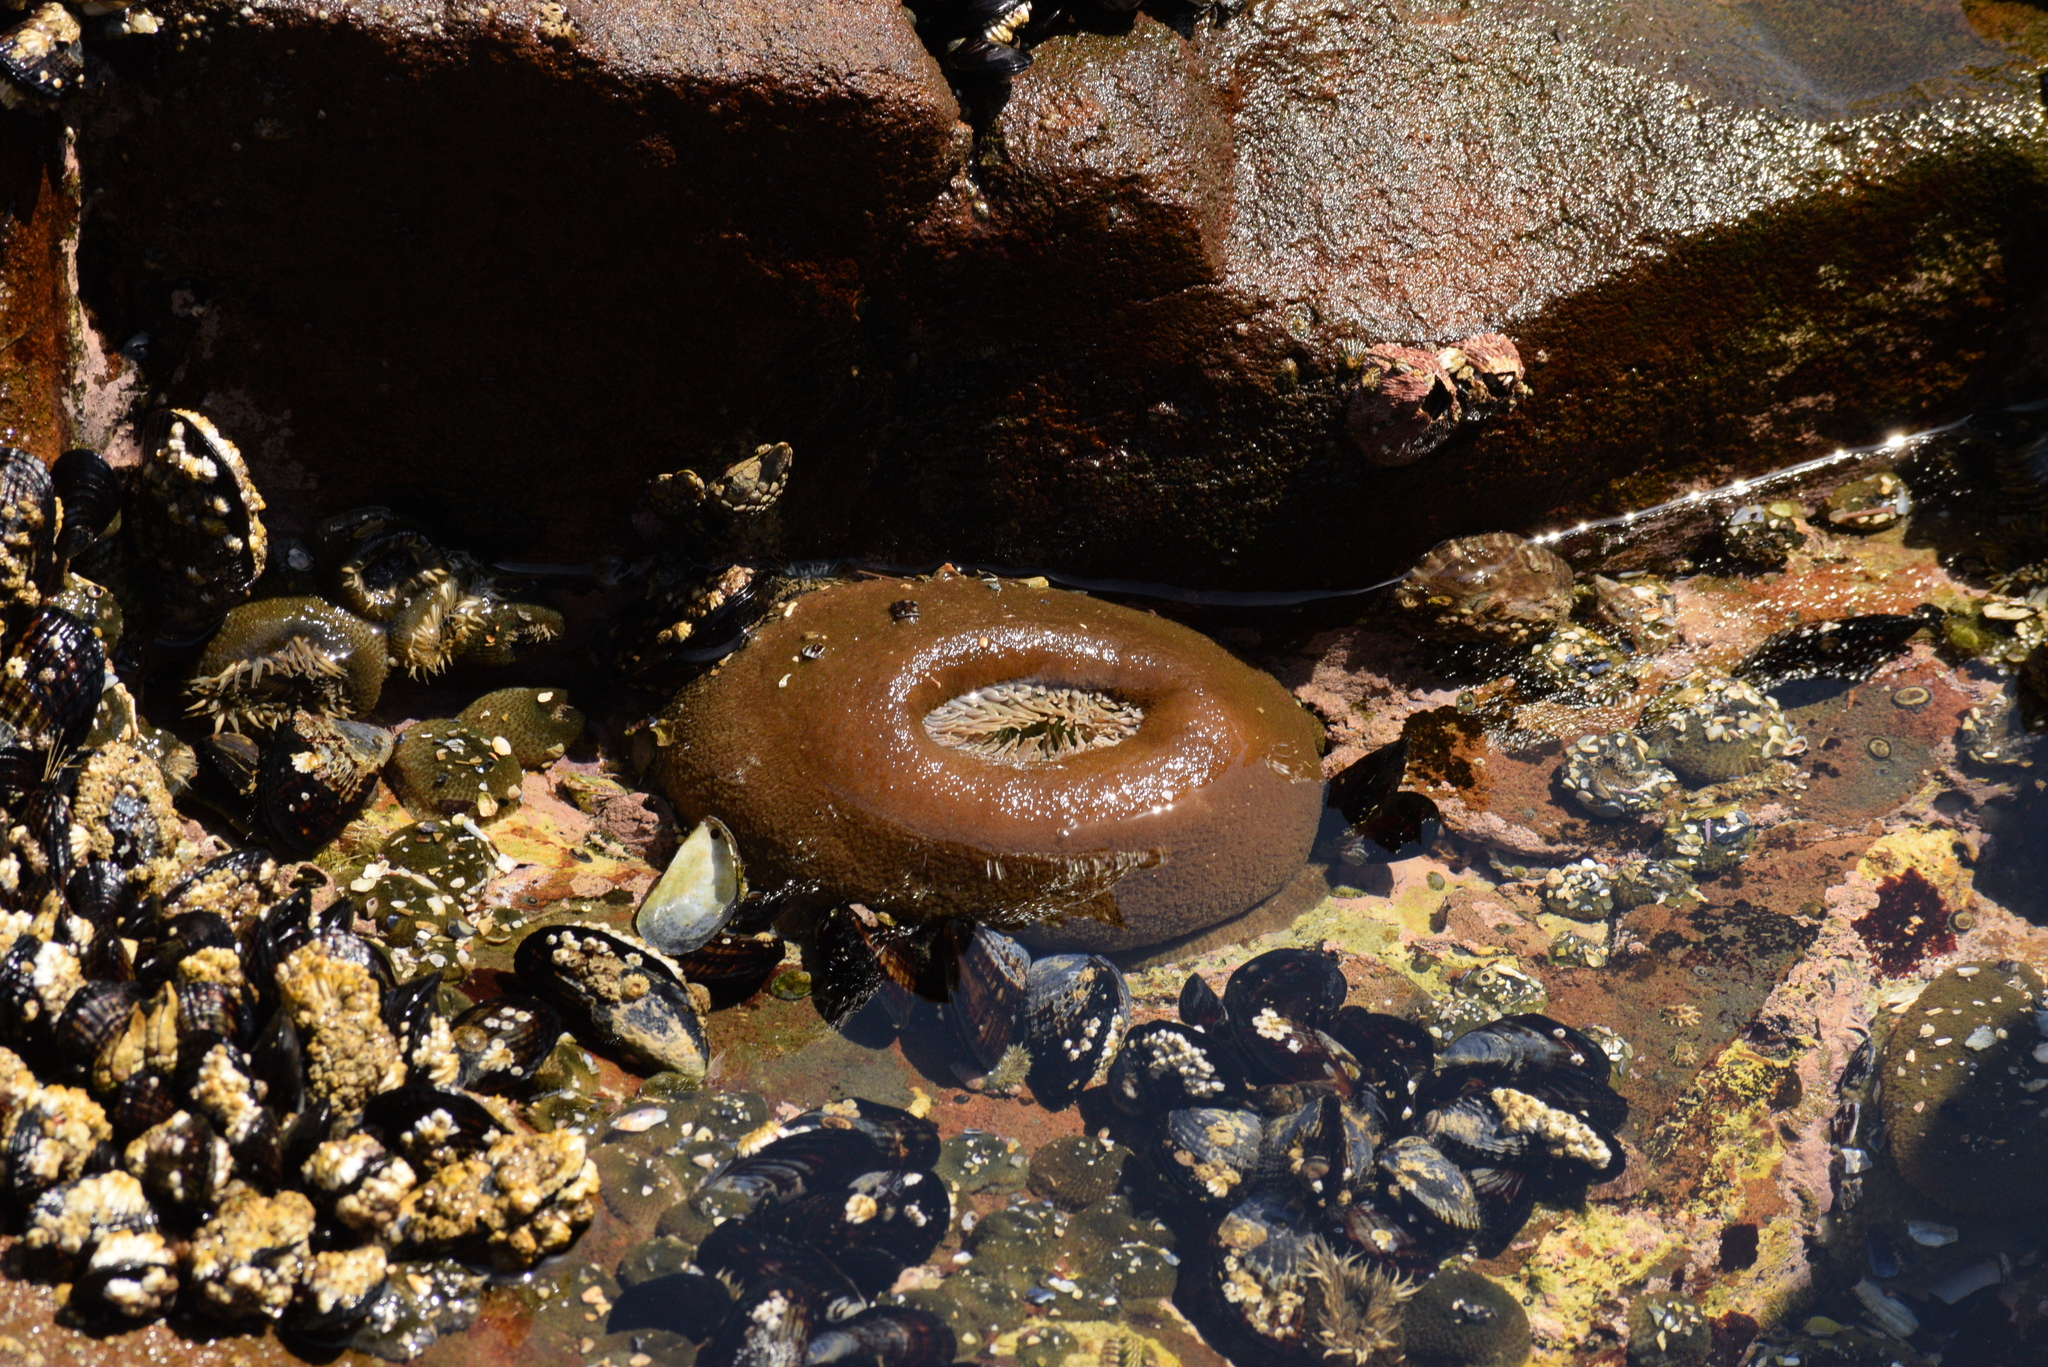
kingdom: Animalia
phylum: Cnidaria
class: Anthozoa
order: Actiniaria
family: Actiniidae
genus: Anthopleura
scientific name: Anthopleura xanthogrammica
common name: Giant green anemone
